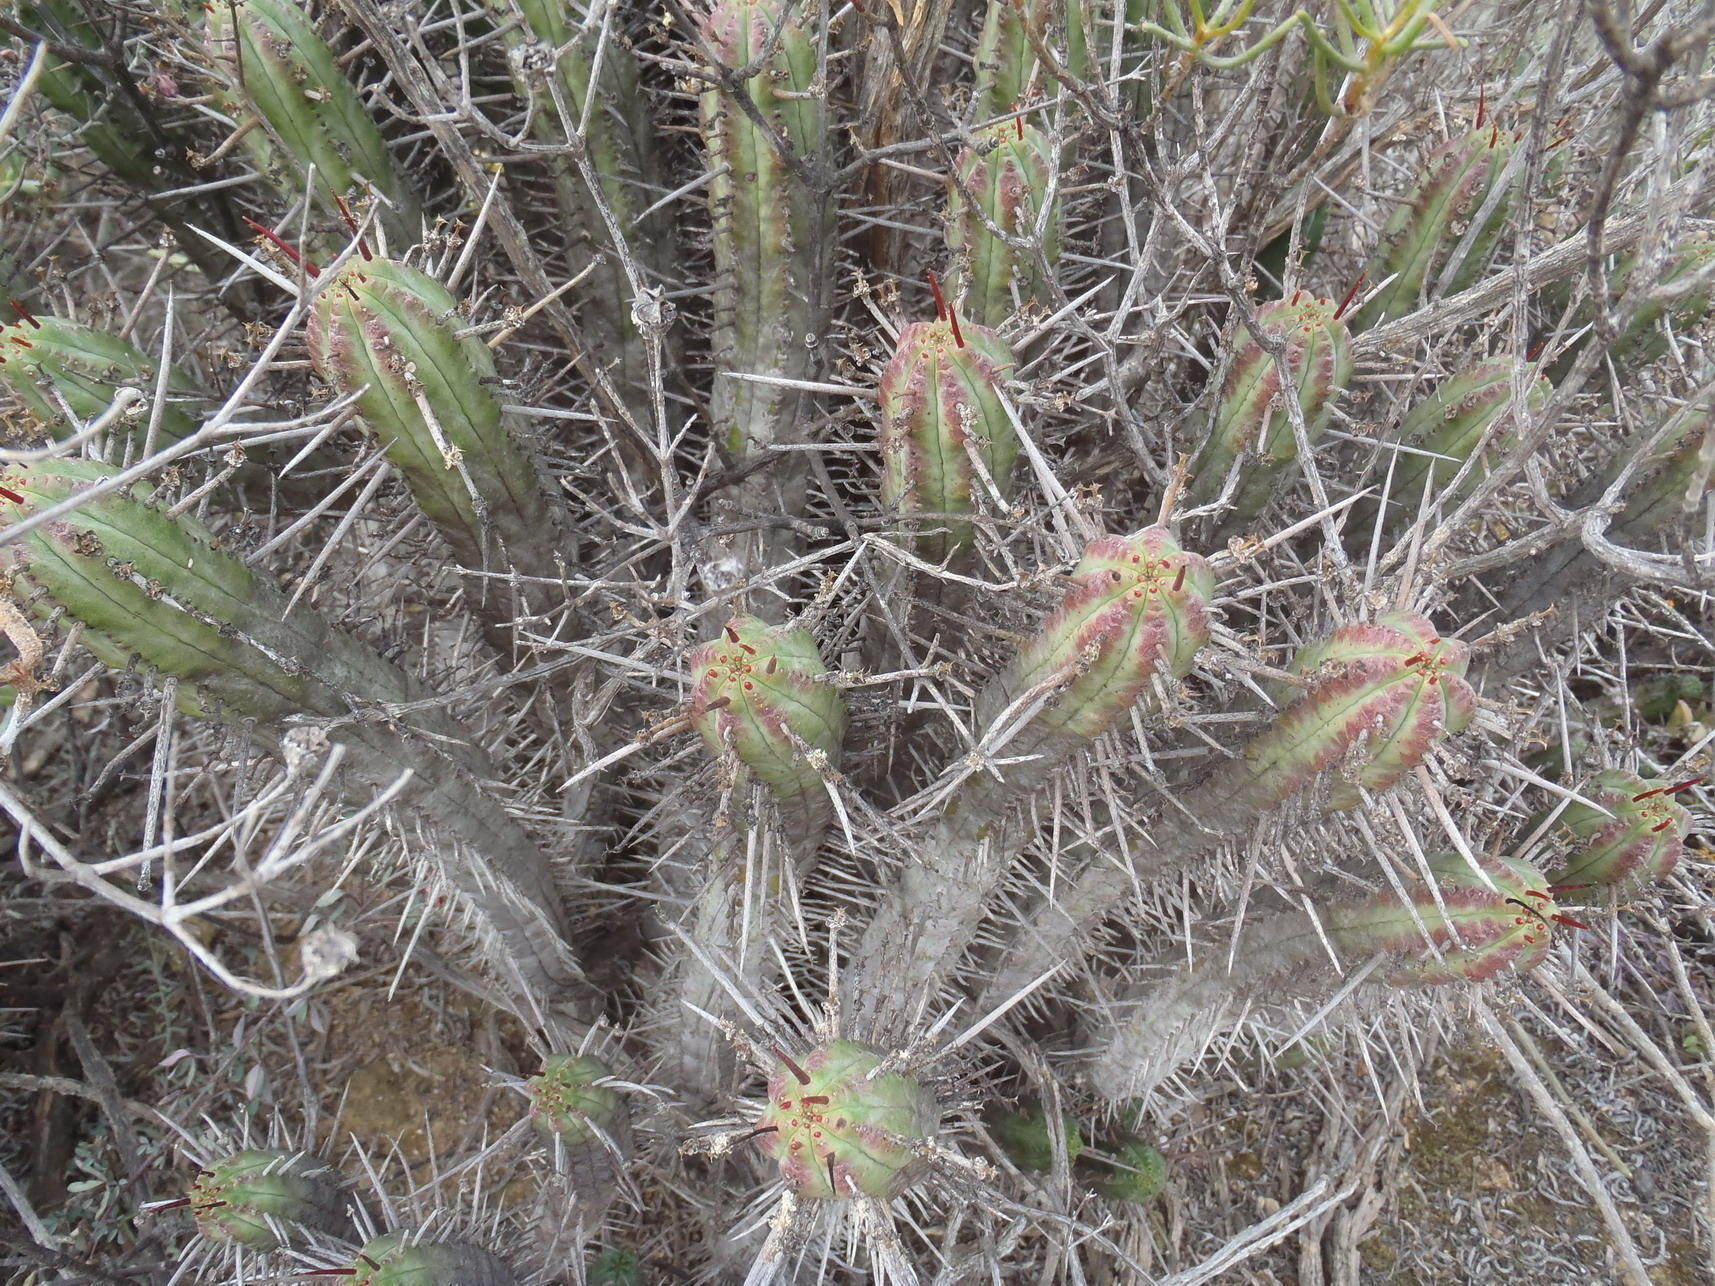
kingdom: Plantae
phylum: Tracheophyta
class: Magnoliopsida
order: Malpighiales
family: Euphorbiaceae
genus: Euphorbia
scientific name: Euphorbia heptagona
